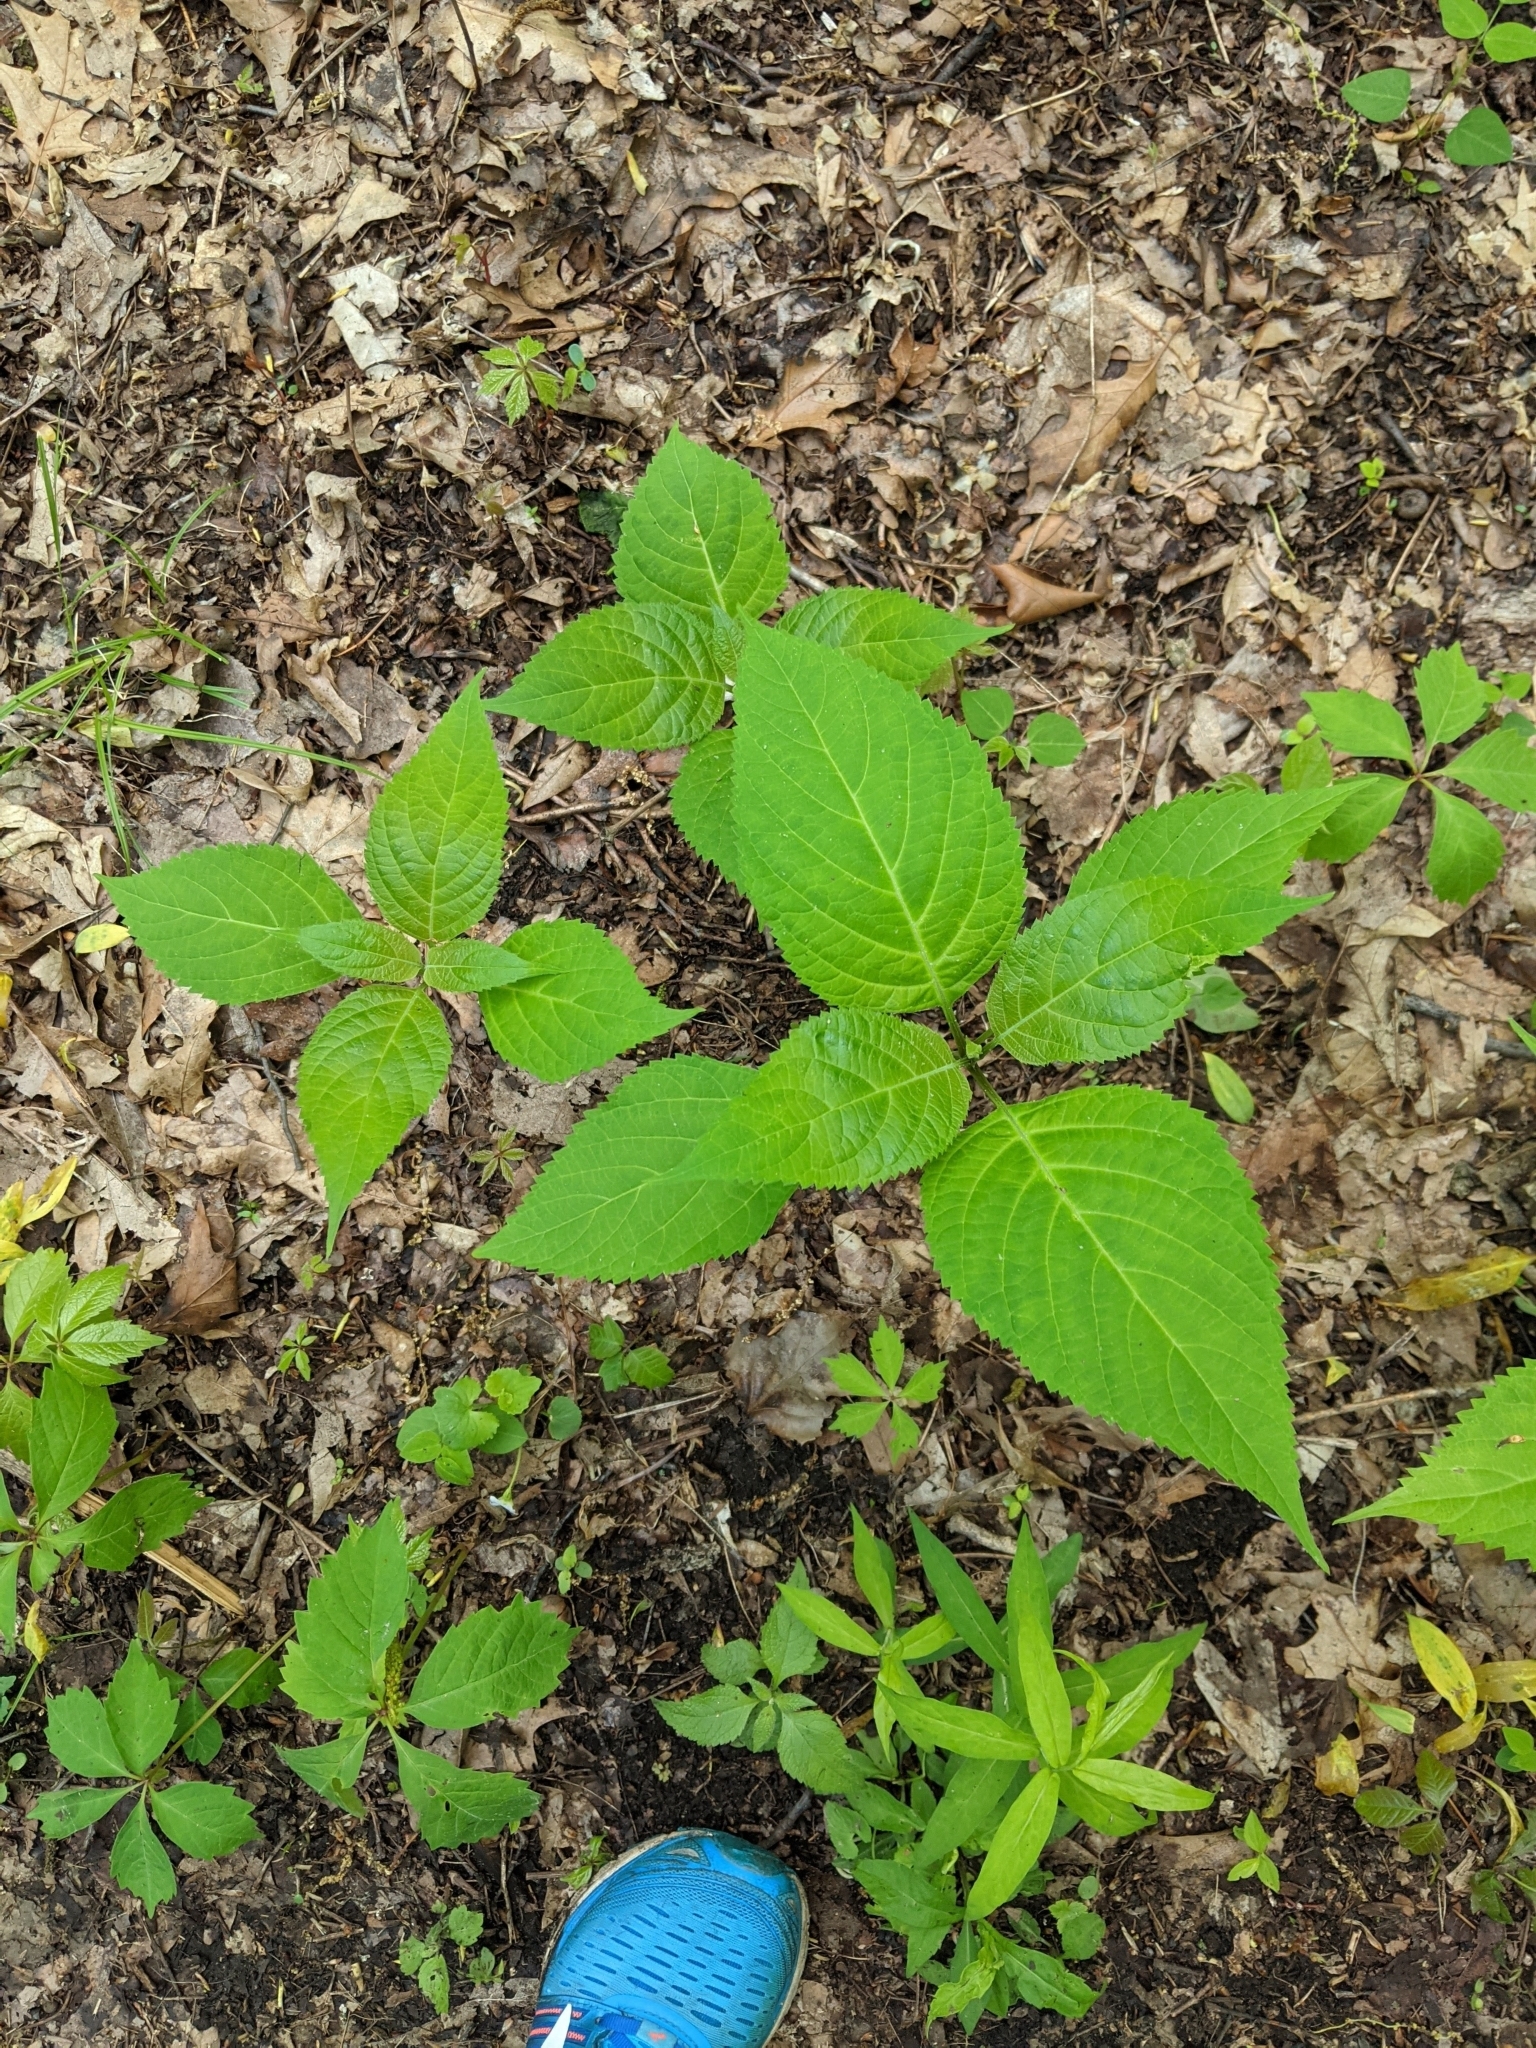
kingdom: Plantae
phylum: Tracheophyta
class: Magnoliopsida
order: Lamiales
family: Lamiaceae
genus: Collinsonia
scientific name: Collinsonia canadensis
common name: Northern horsebalm
